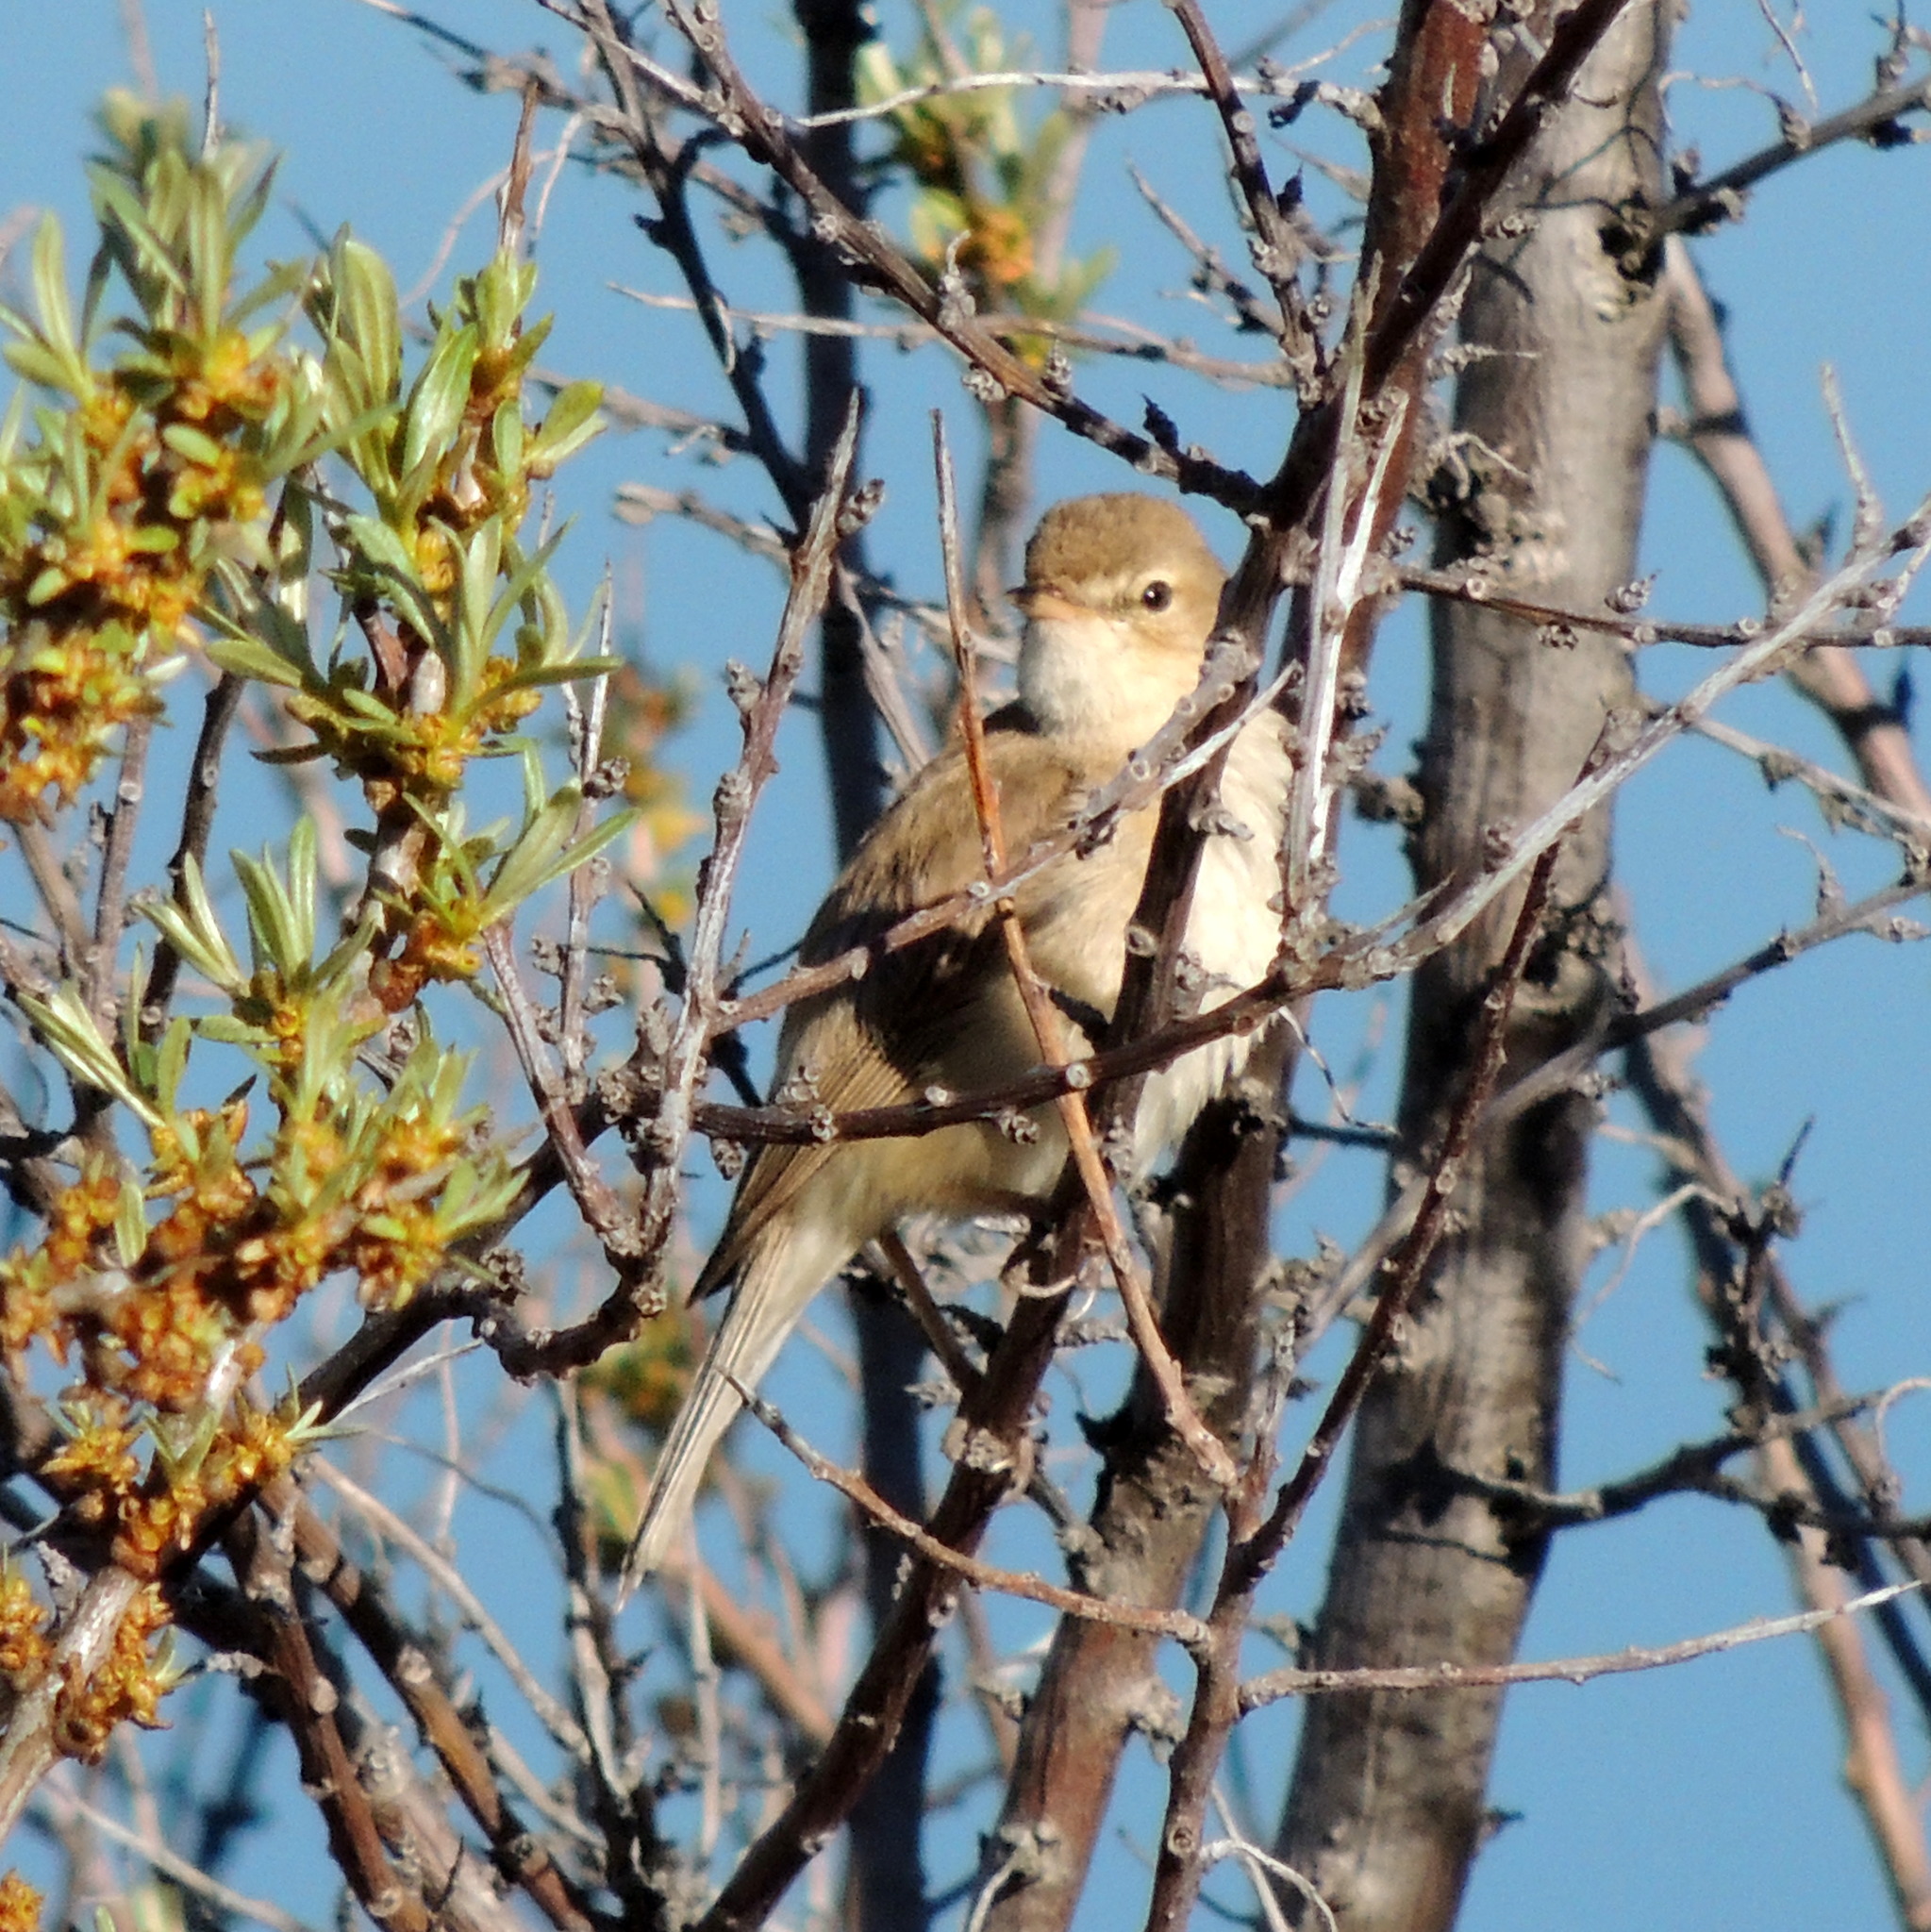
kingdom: Animalia
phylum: Chordata
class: Aves
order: Passeriformes
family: Acrocephalidae
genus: Iduna
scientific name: Iduna caligata
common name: Booted warbler
